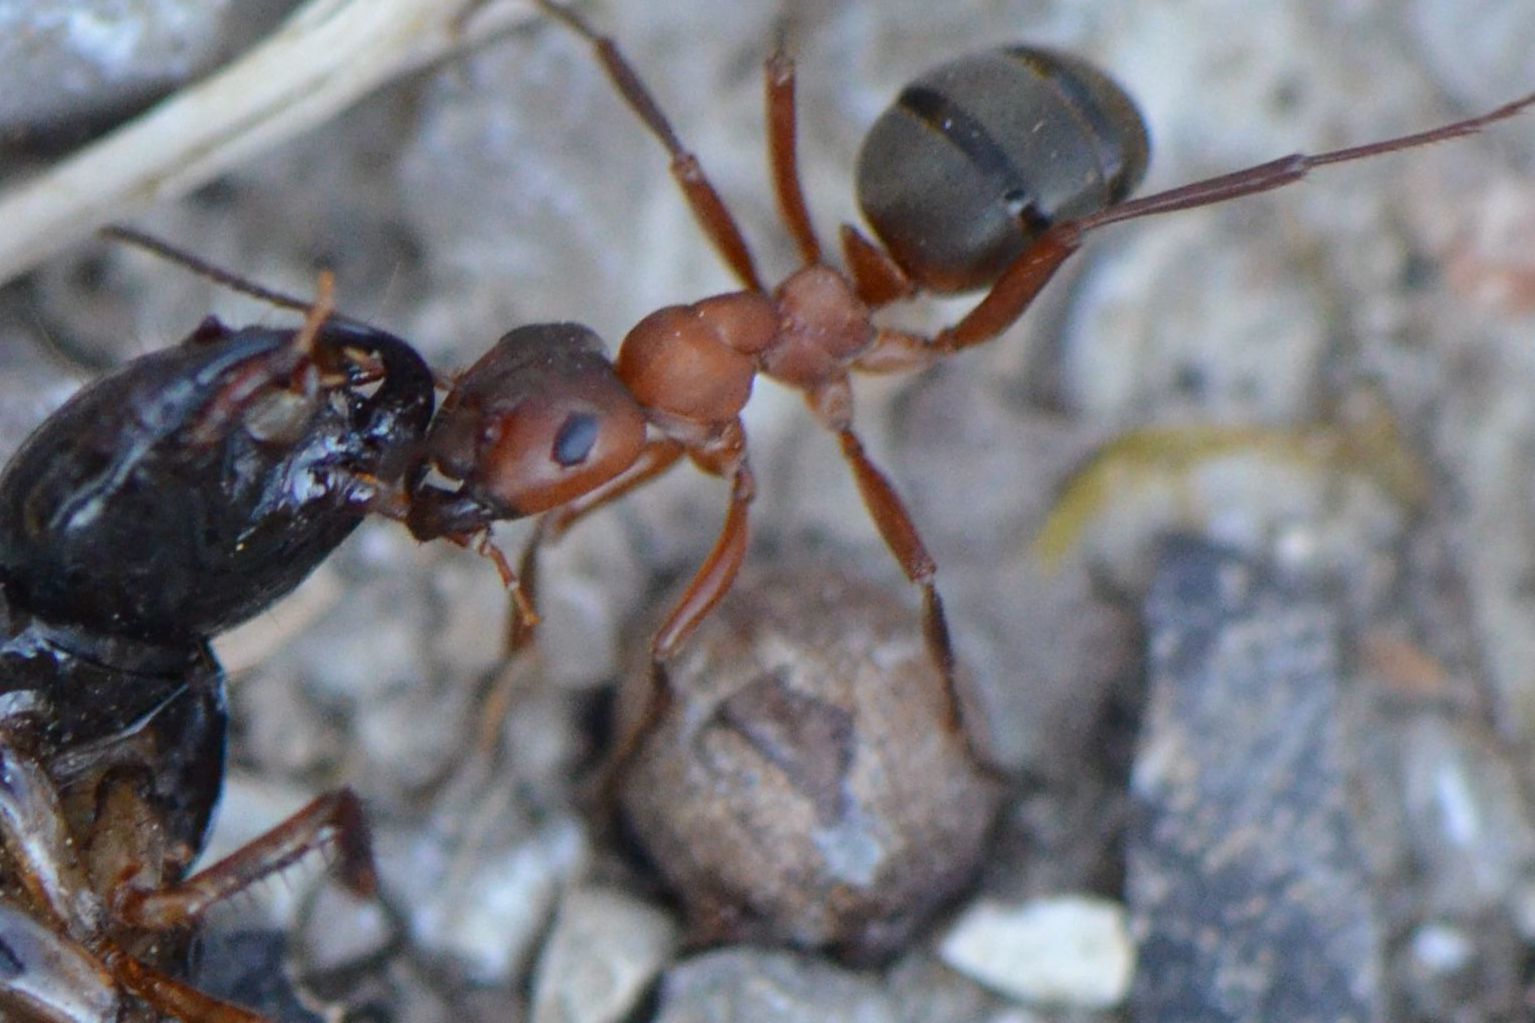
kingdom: Animalia
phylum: Arthropoda
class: Insecta
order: Hymenoptera
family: Formicidae
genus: Formica
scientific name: Formica sanguinea
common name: Blood-red ant
